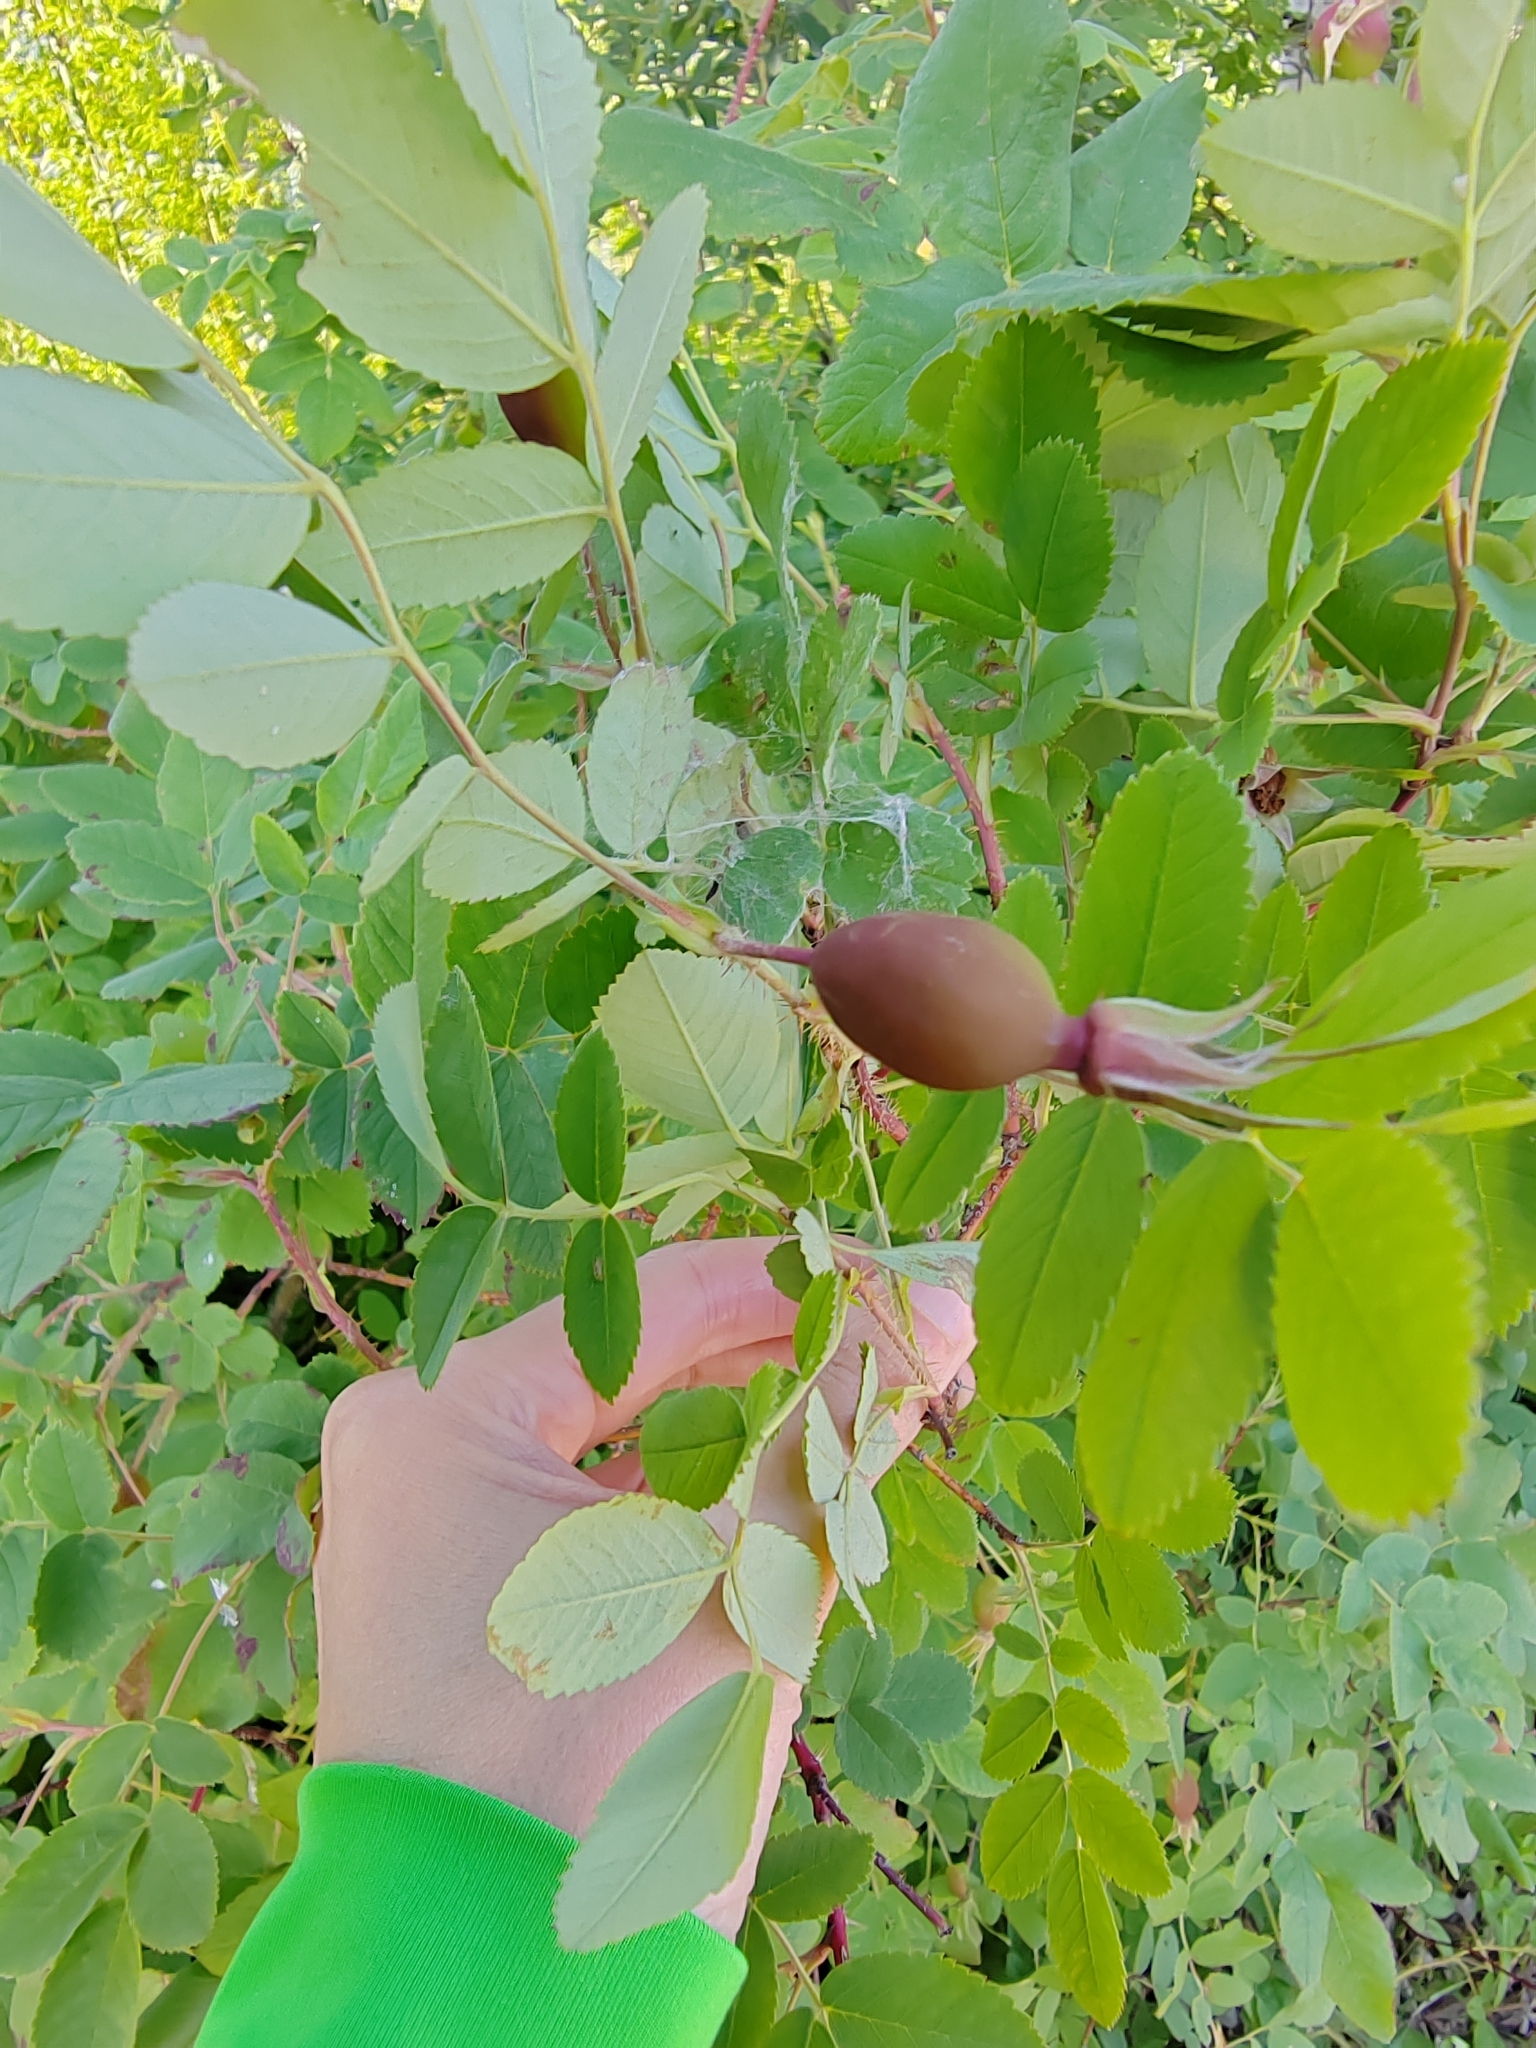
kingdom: Plantae
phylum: Tracheophyta
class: Magnoliopsida
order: Rosales
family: Rosaceae
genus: Rosa
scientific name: Rosa acicularis
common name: Prickly rose
